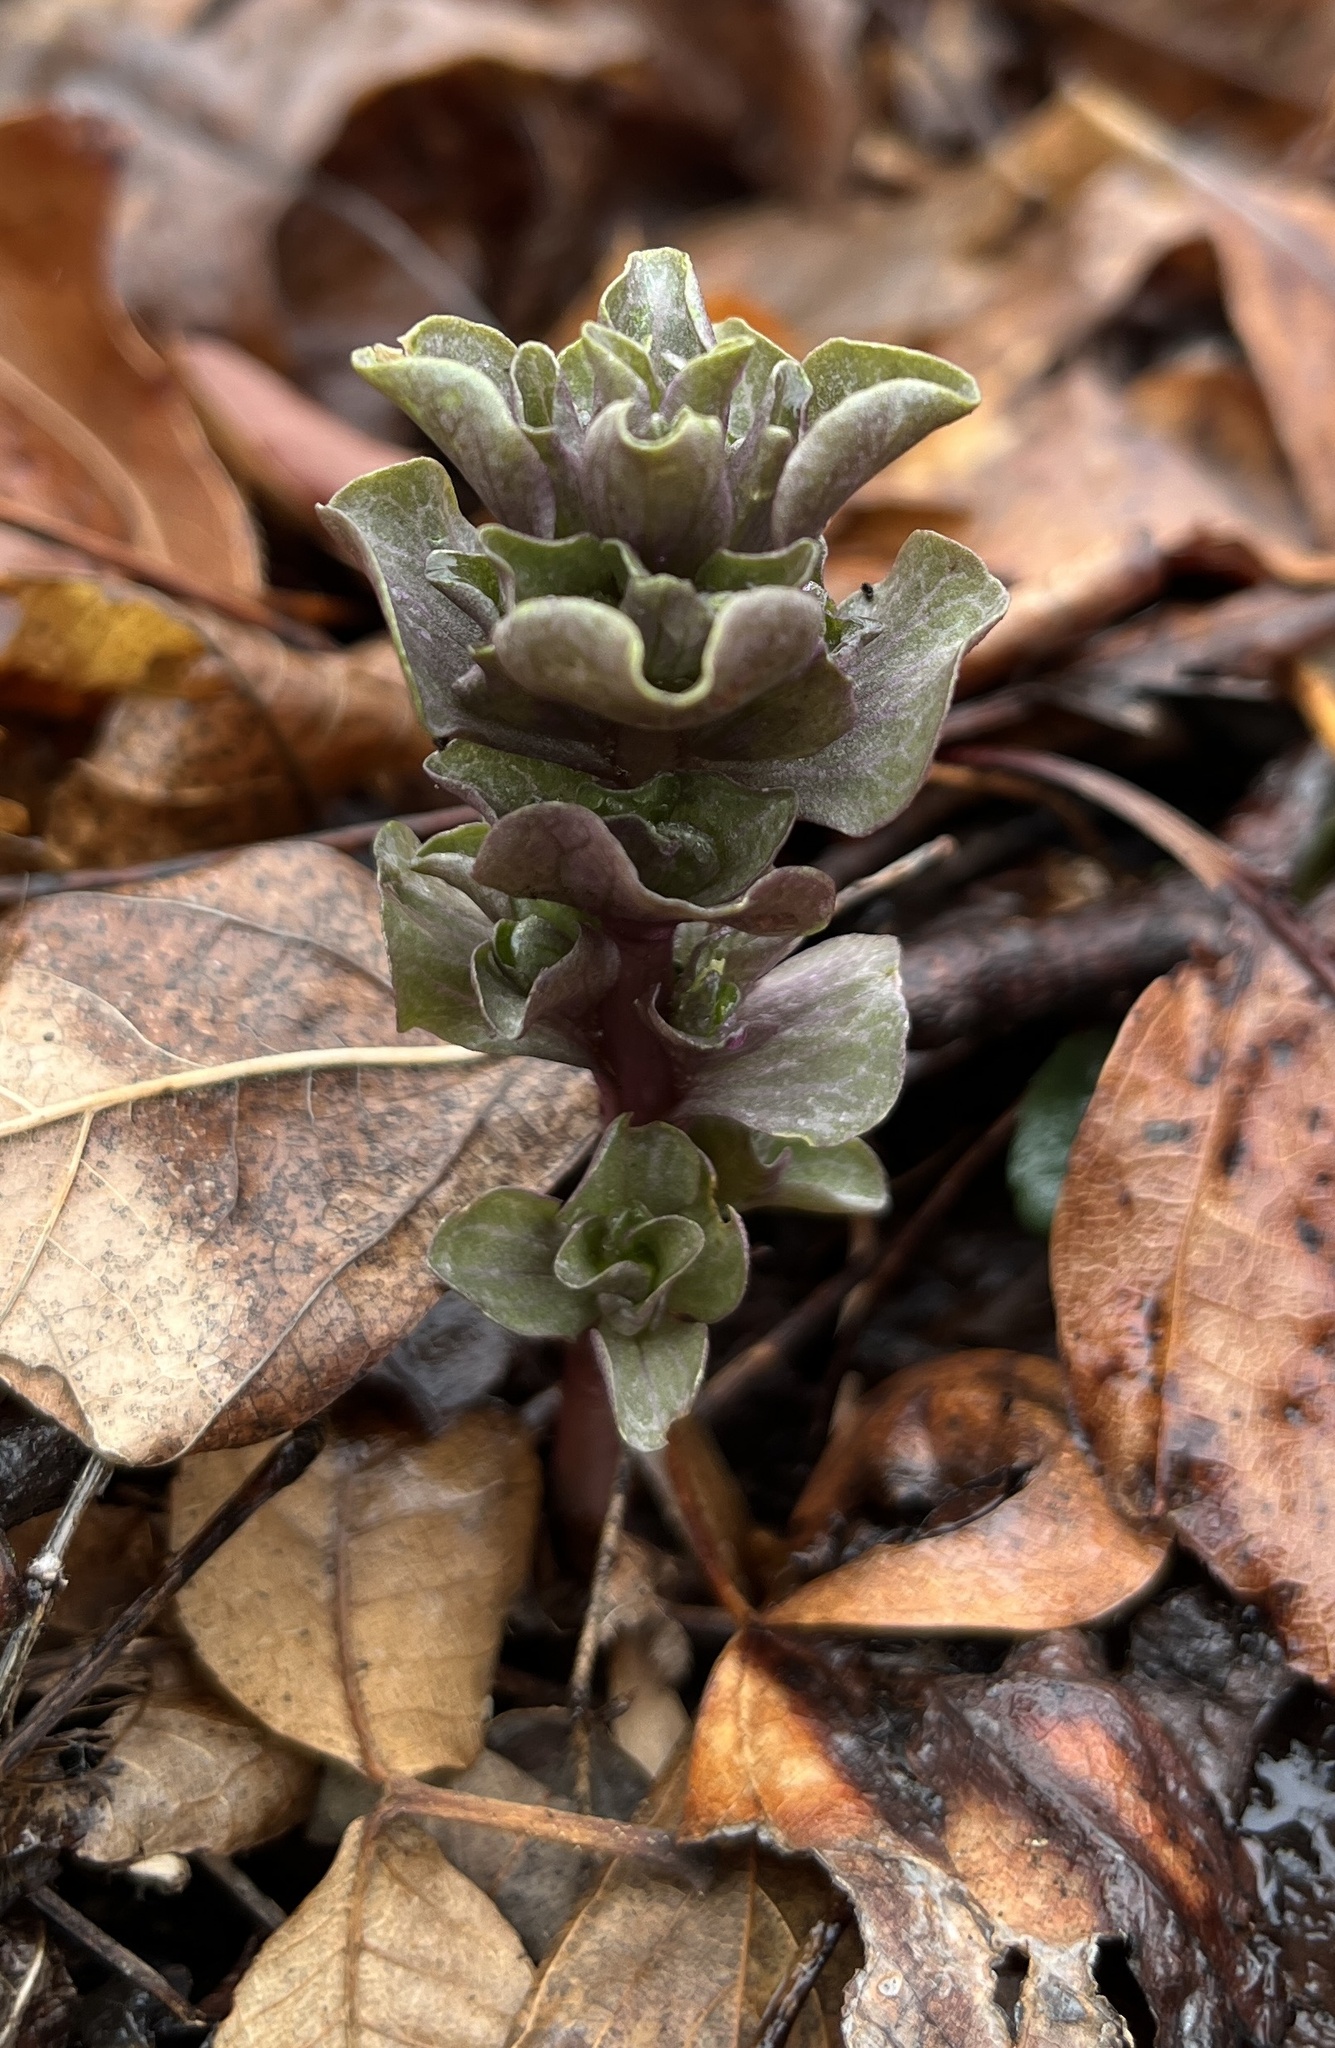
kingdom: Plantae
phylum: Tracheophyta
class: Magnoliopsida
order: Gentianales
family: Gentianaceae
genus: Obolaria
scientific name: Obolaria virginica
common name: Pennywort
